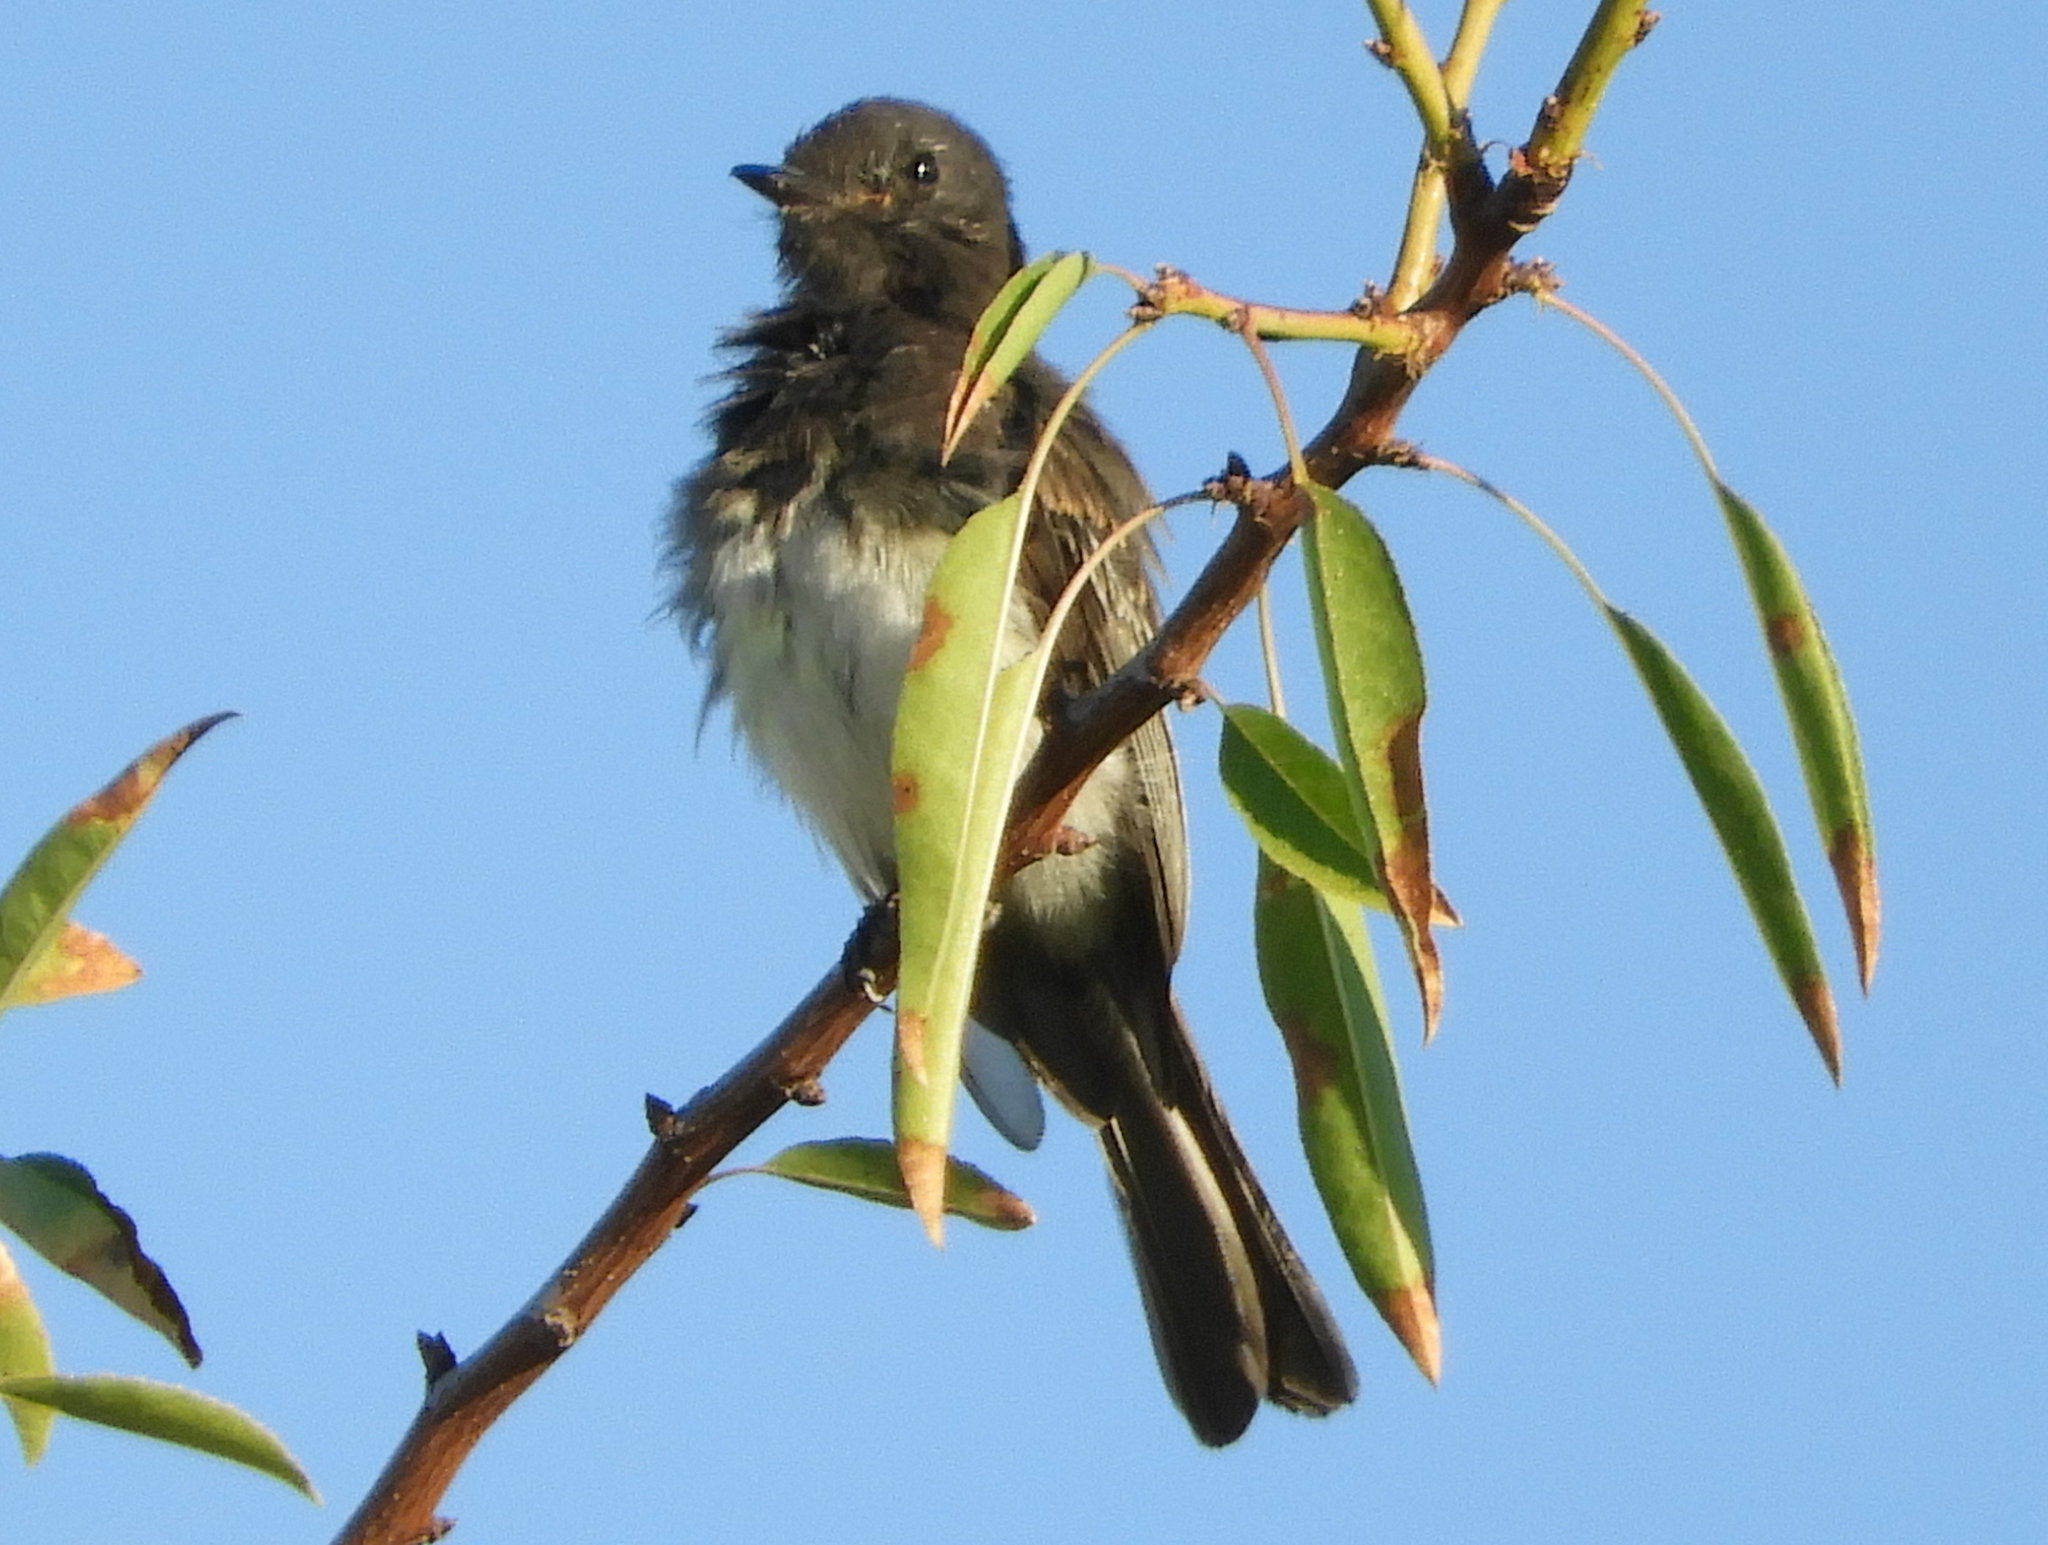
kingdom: Animalia
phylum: Chordata
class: Aves
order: Passeriformes
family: Tyrannidae
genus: Sayornis
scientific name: Sayornis nigricans
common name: Black phoebe
